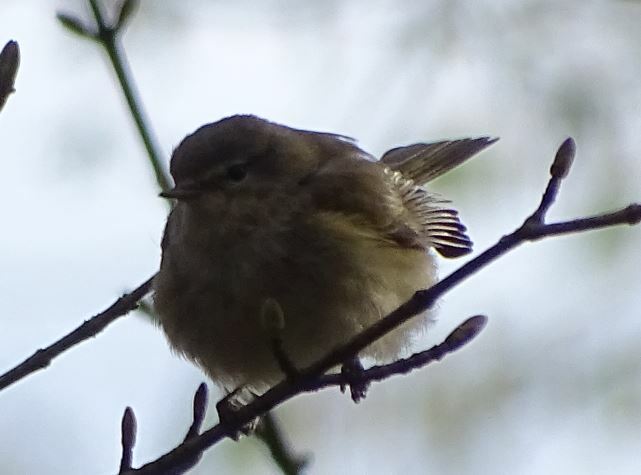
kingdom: Animalia
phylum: Chordata
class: Aves
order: Passeriformes
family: Phylloscopidae
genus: Phylloscopus
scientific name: Phylloscopus collybita
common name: Common chiffchaff
